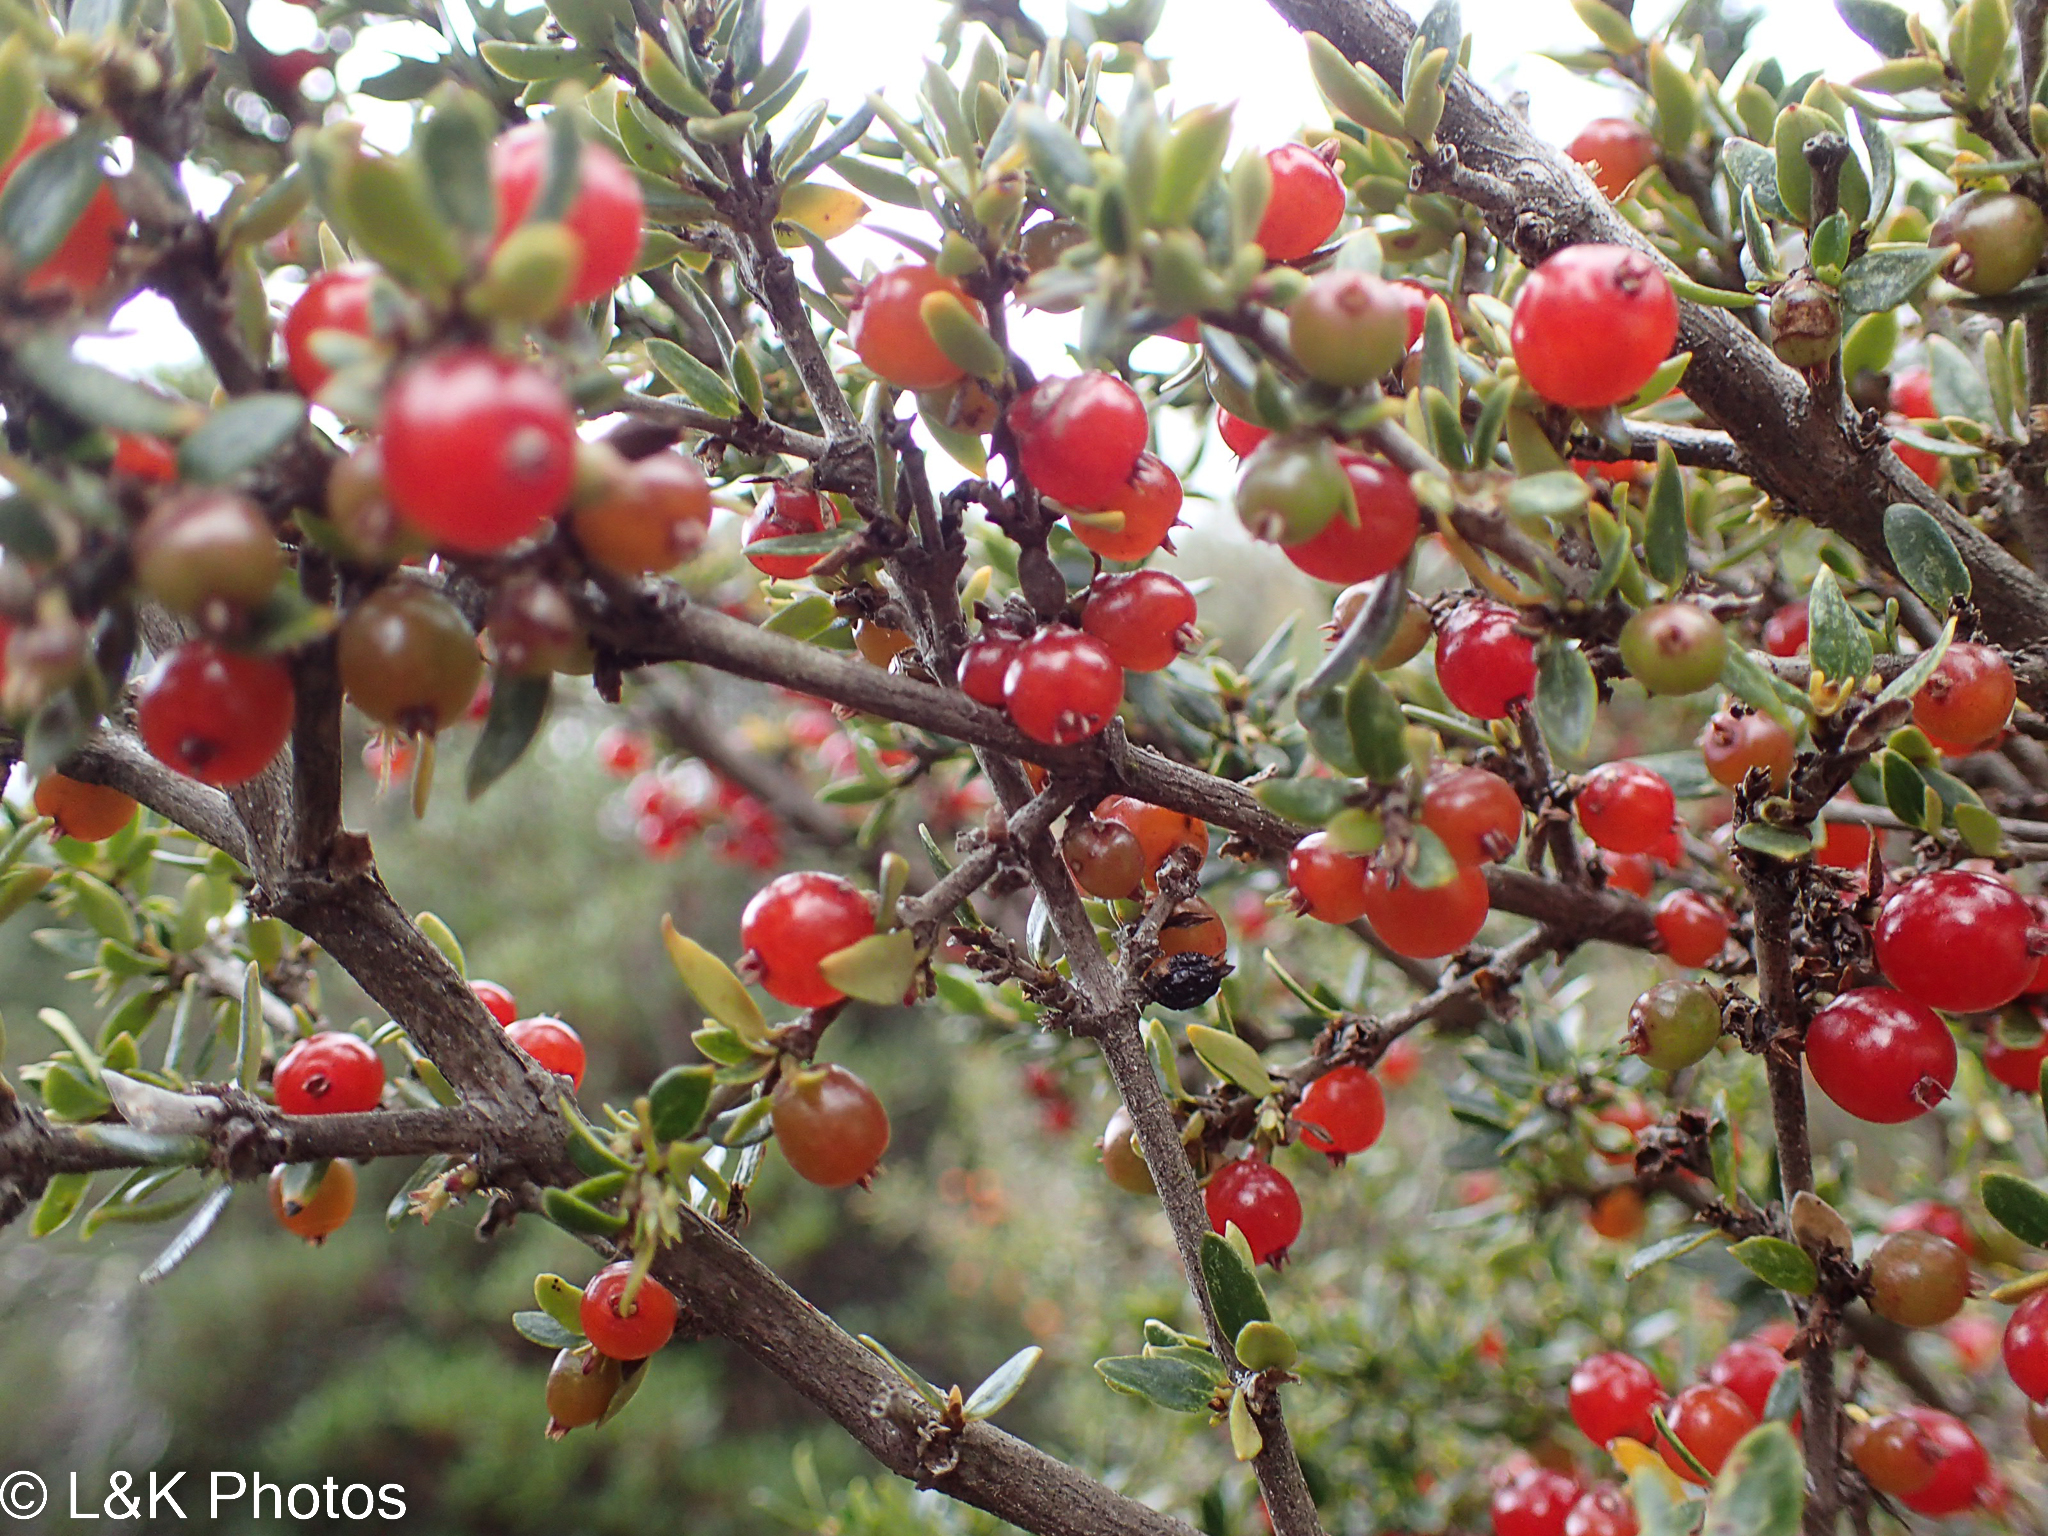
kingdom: Plantae
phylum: Tracheophyta
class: Magnoliopsida
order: Gentianales
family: Rubiaceae
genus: Coprosma
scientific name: Coprosma nitida
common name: Shining coprosma
